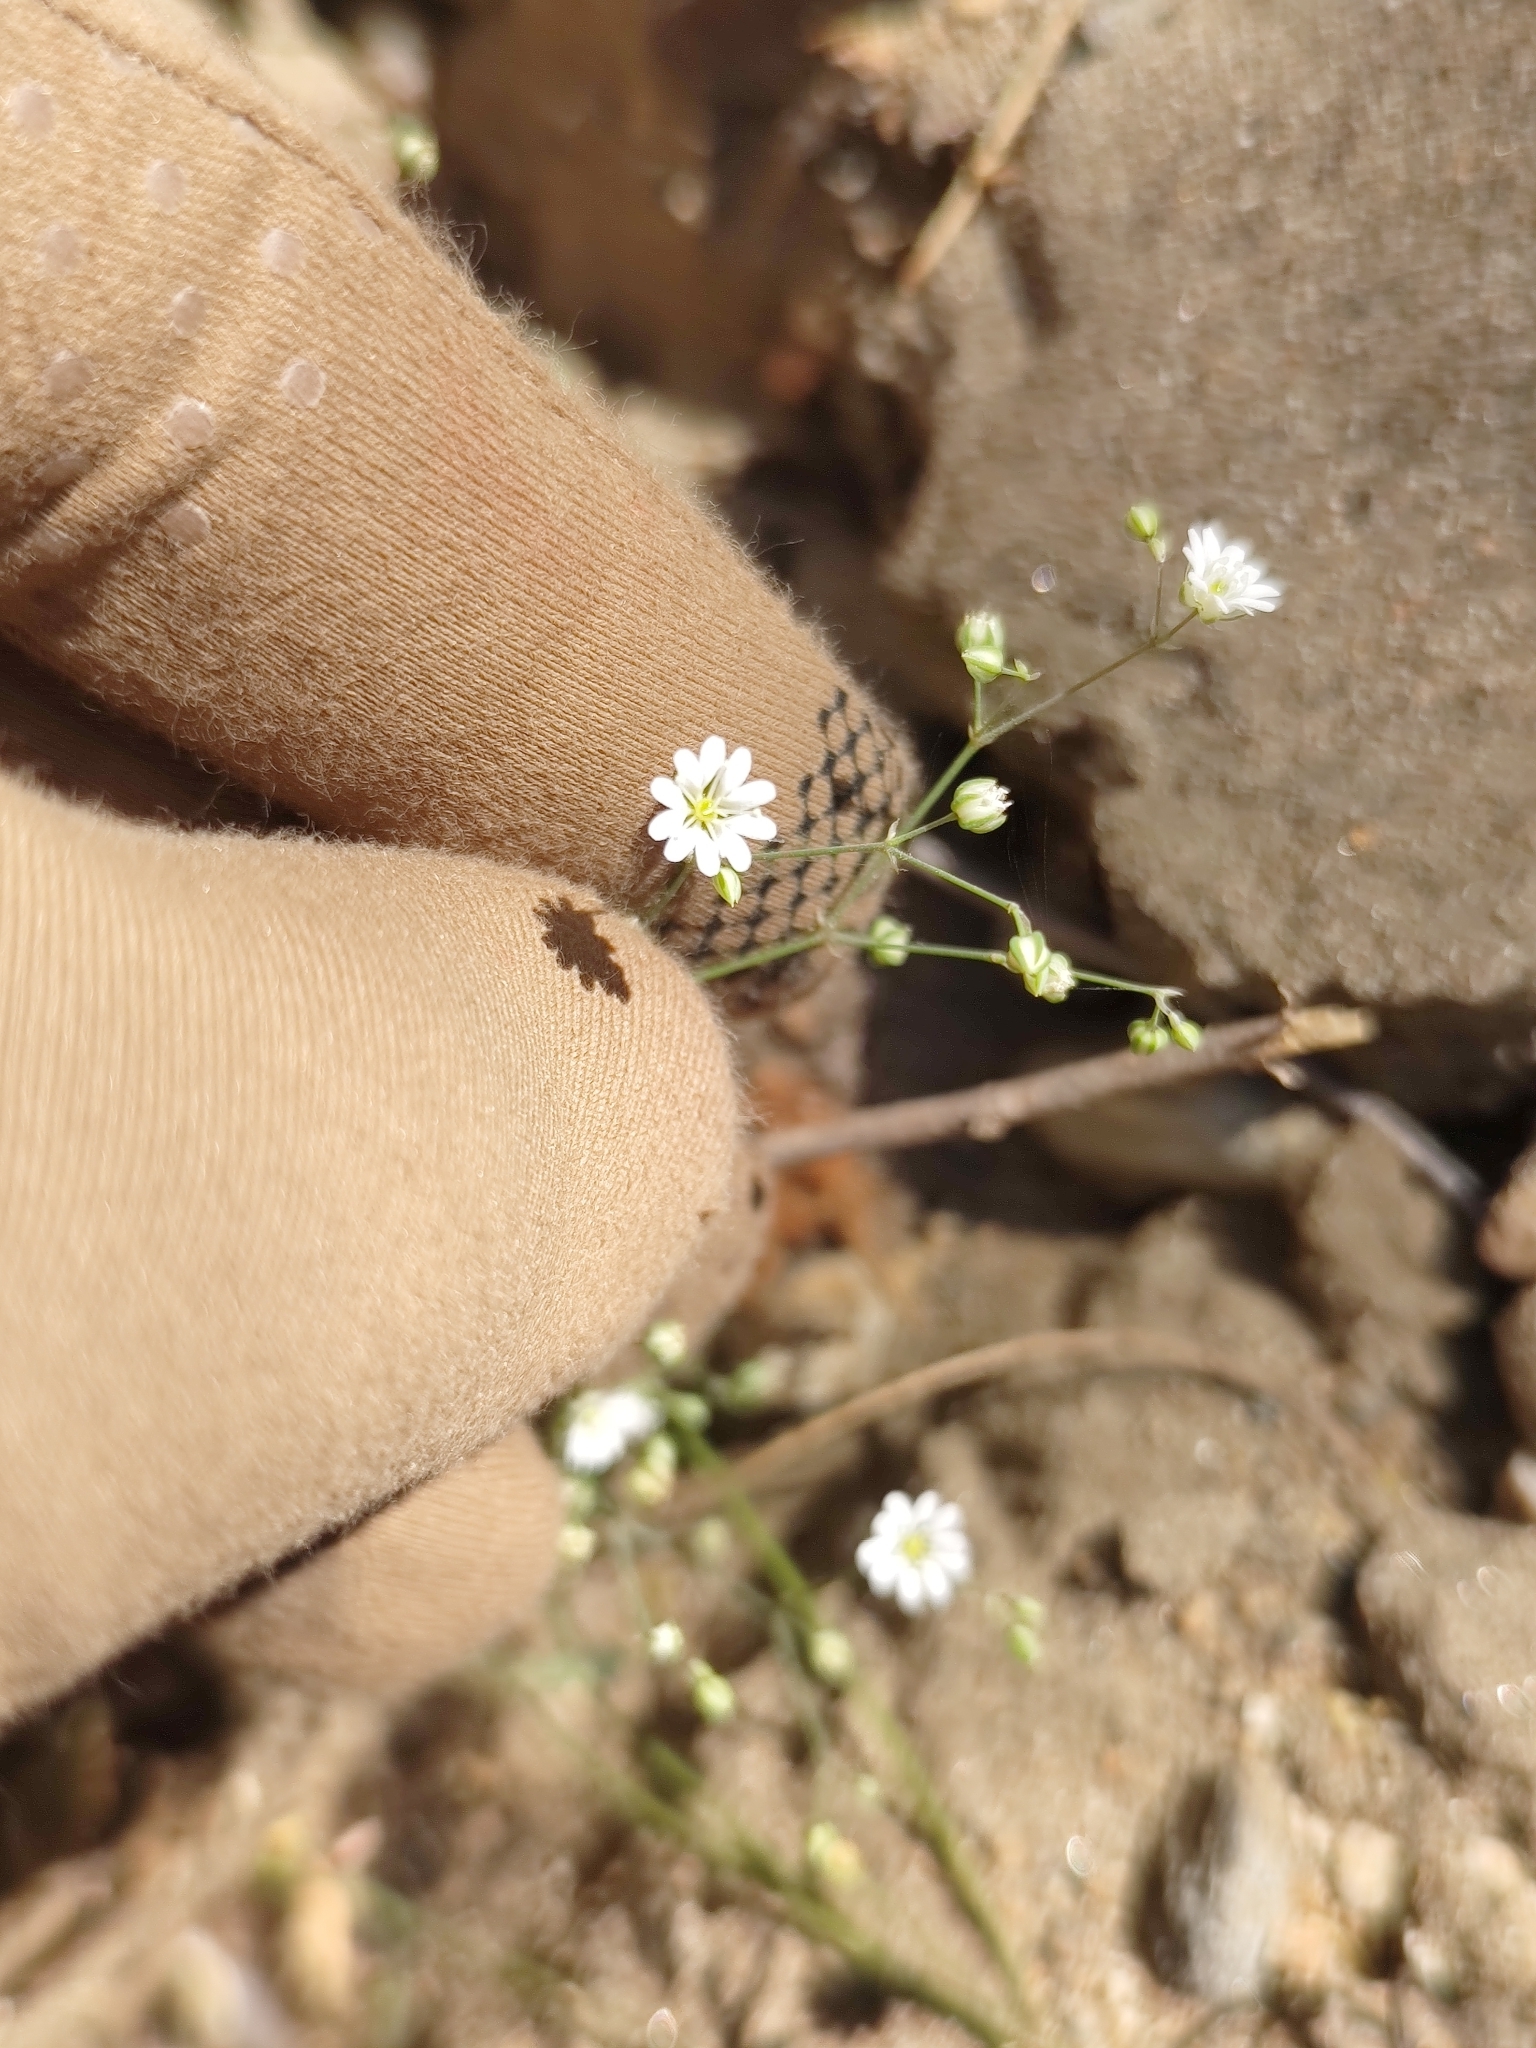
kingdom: Plantae
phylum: Tracheophyta
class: Magnoliopsida
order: Caryophyllales
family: Caryophyllaceae
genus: Drymaria
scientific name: Drymaria gracilis
